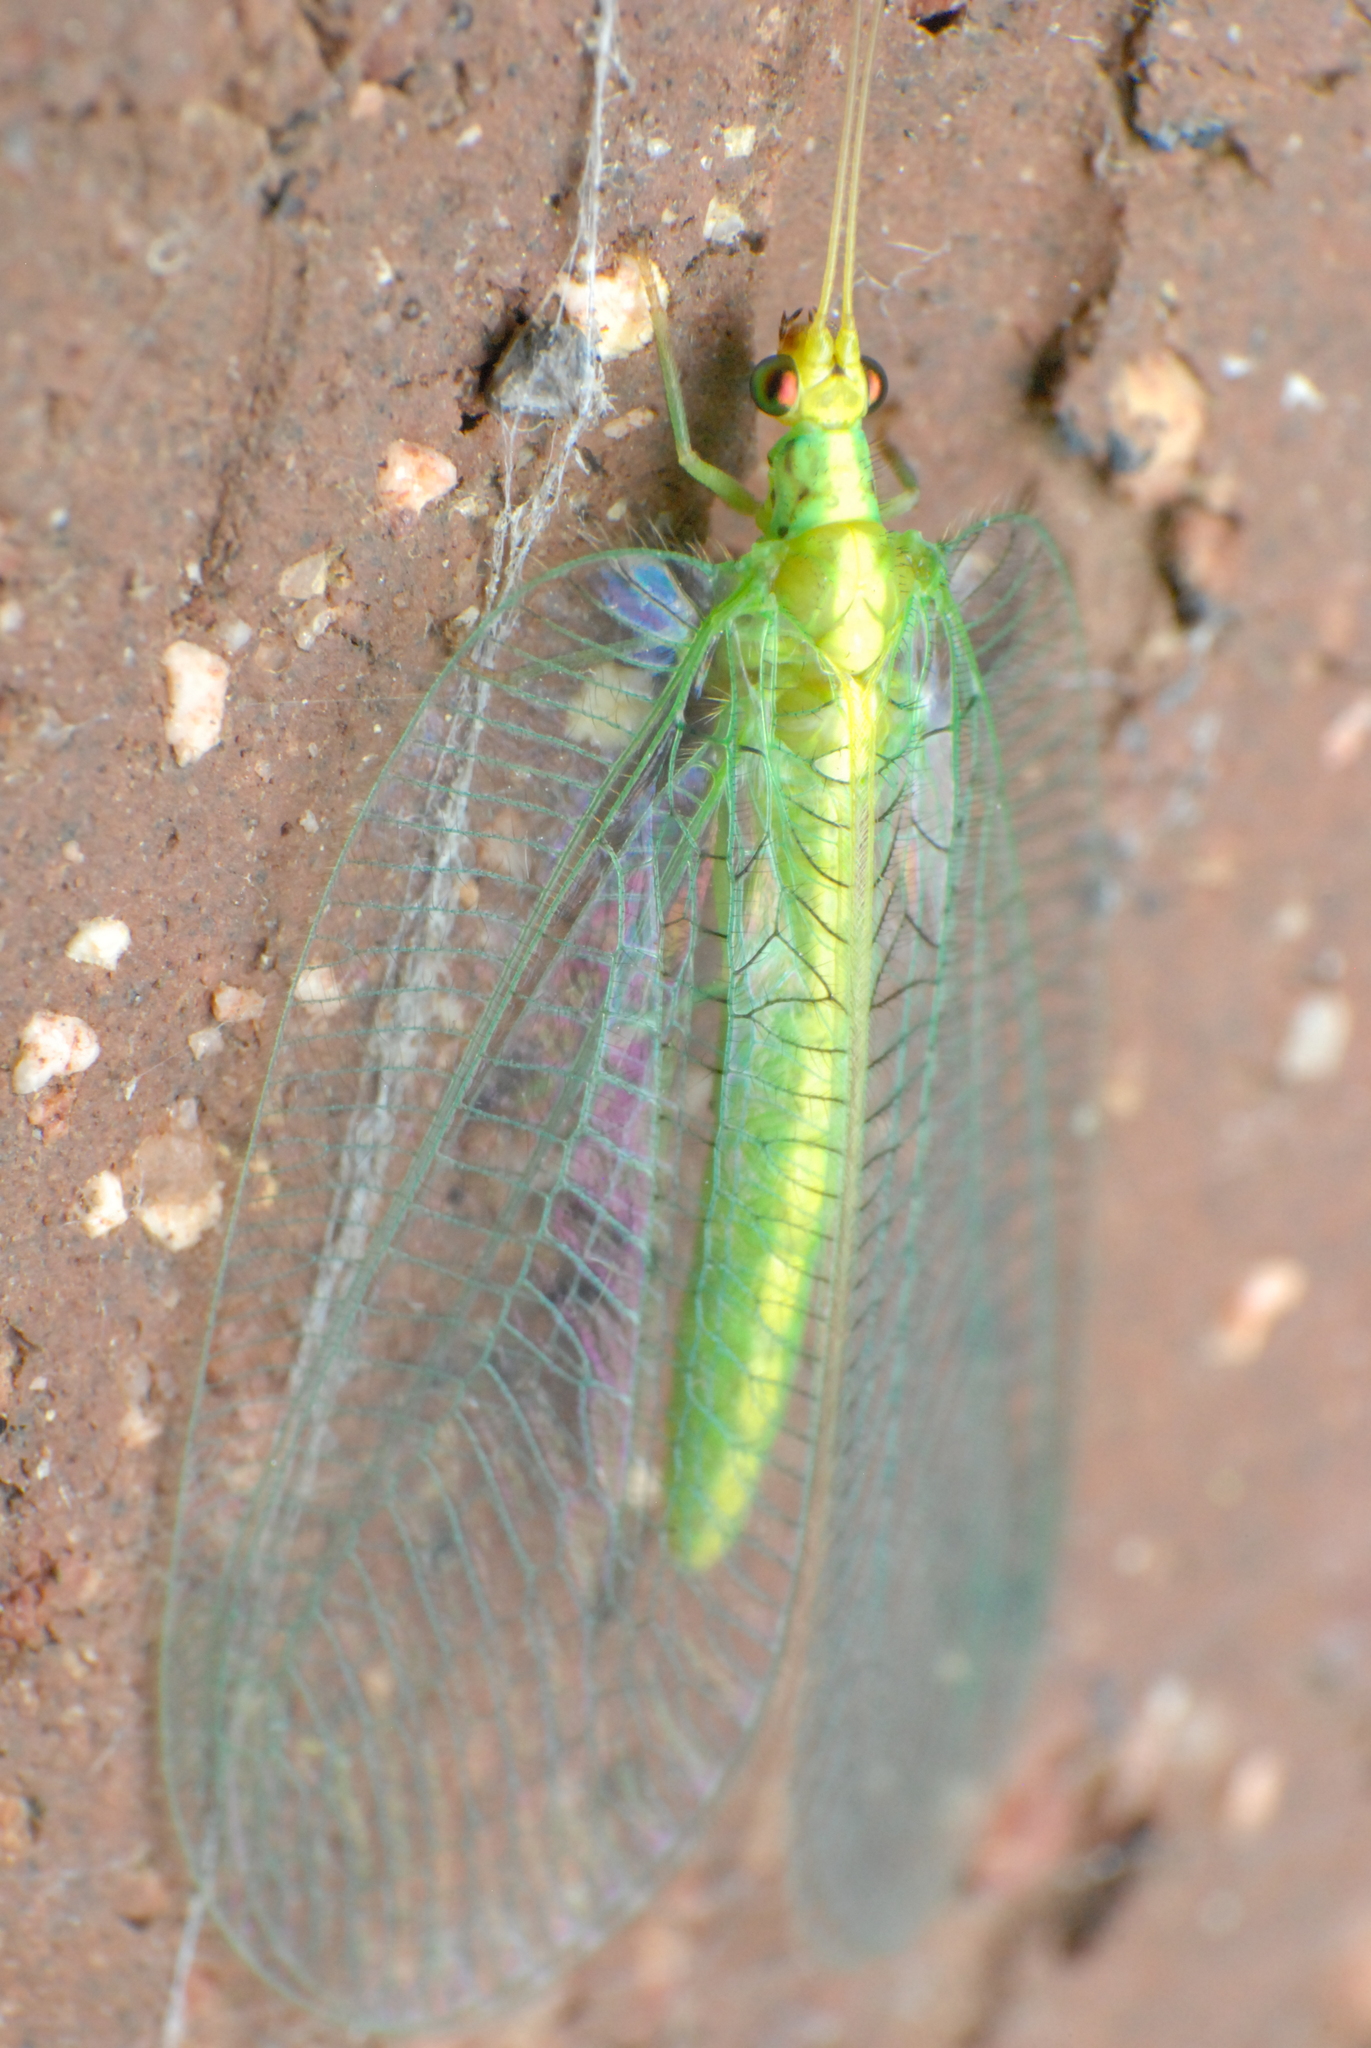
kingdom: Animalia
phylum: Arthropoda
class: Insecta
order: Neuroptera
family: Chrysopidae
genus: Nothancyla
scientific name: Nothancyla verreauxi
